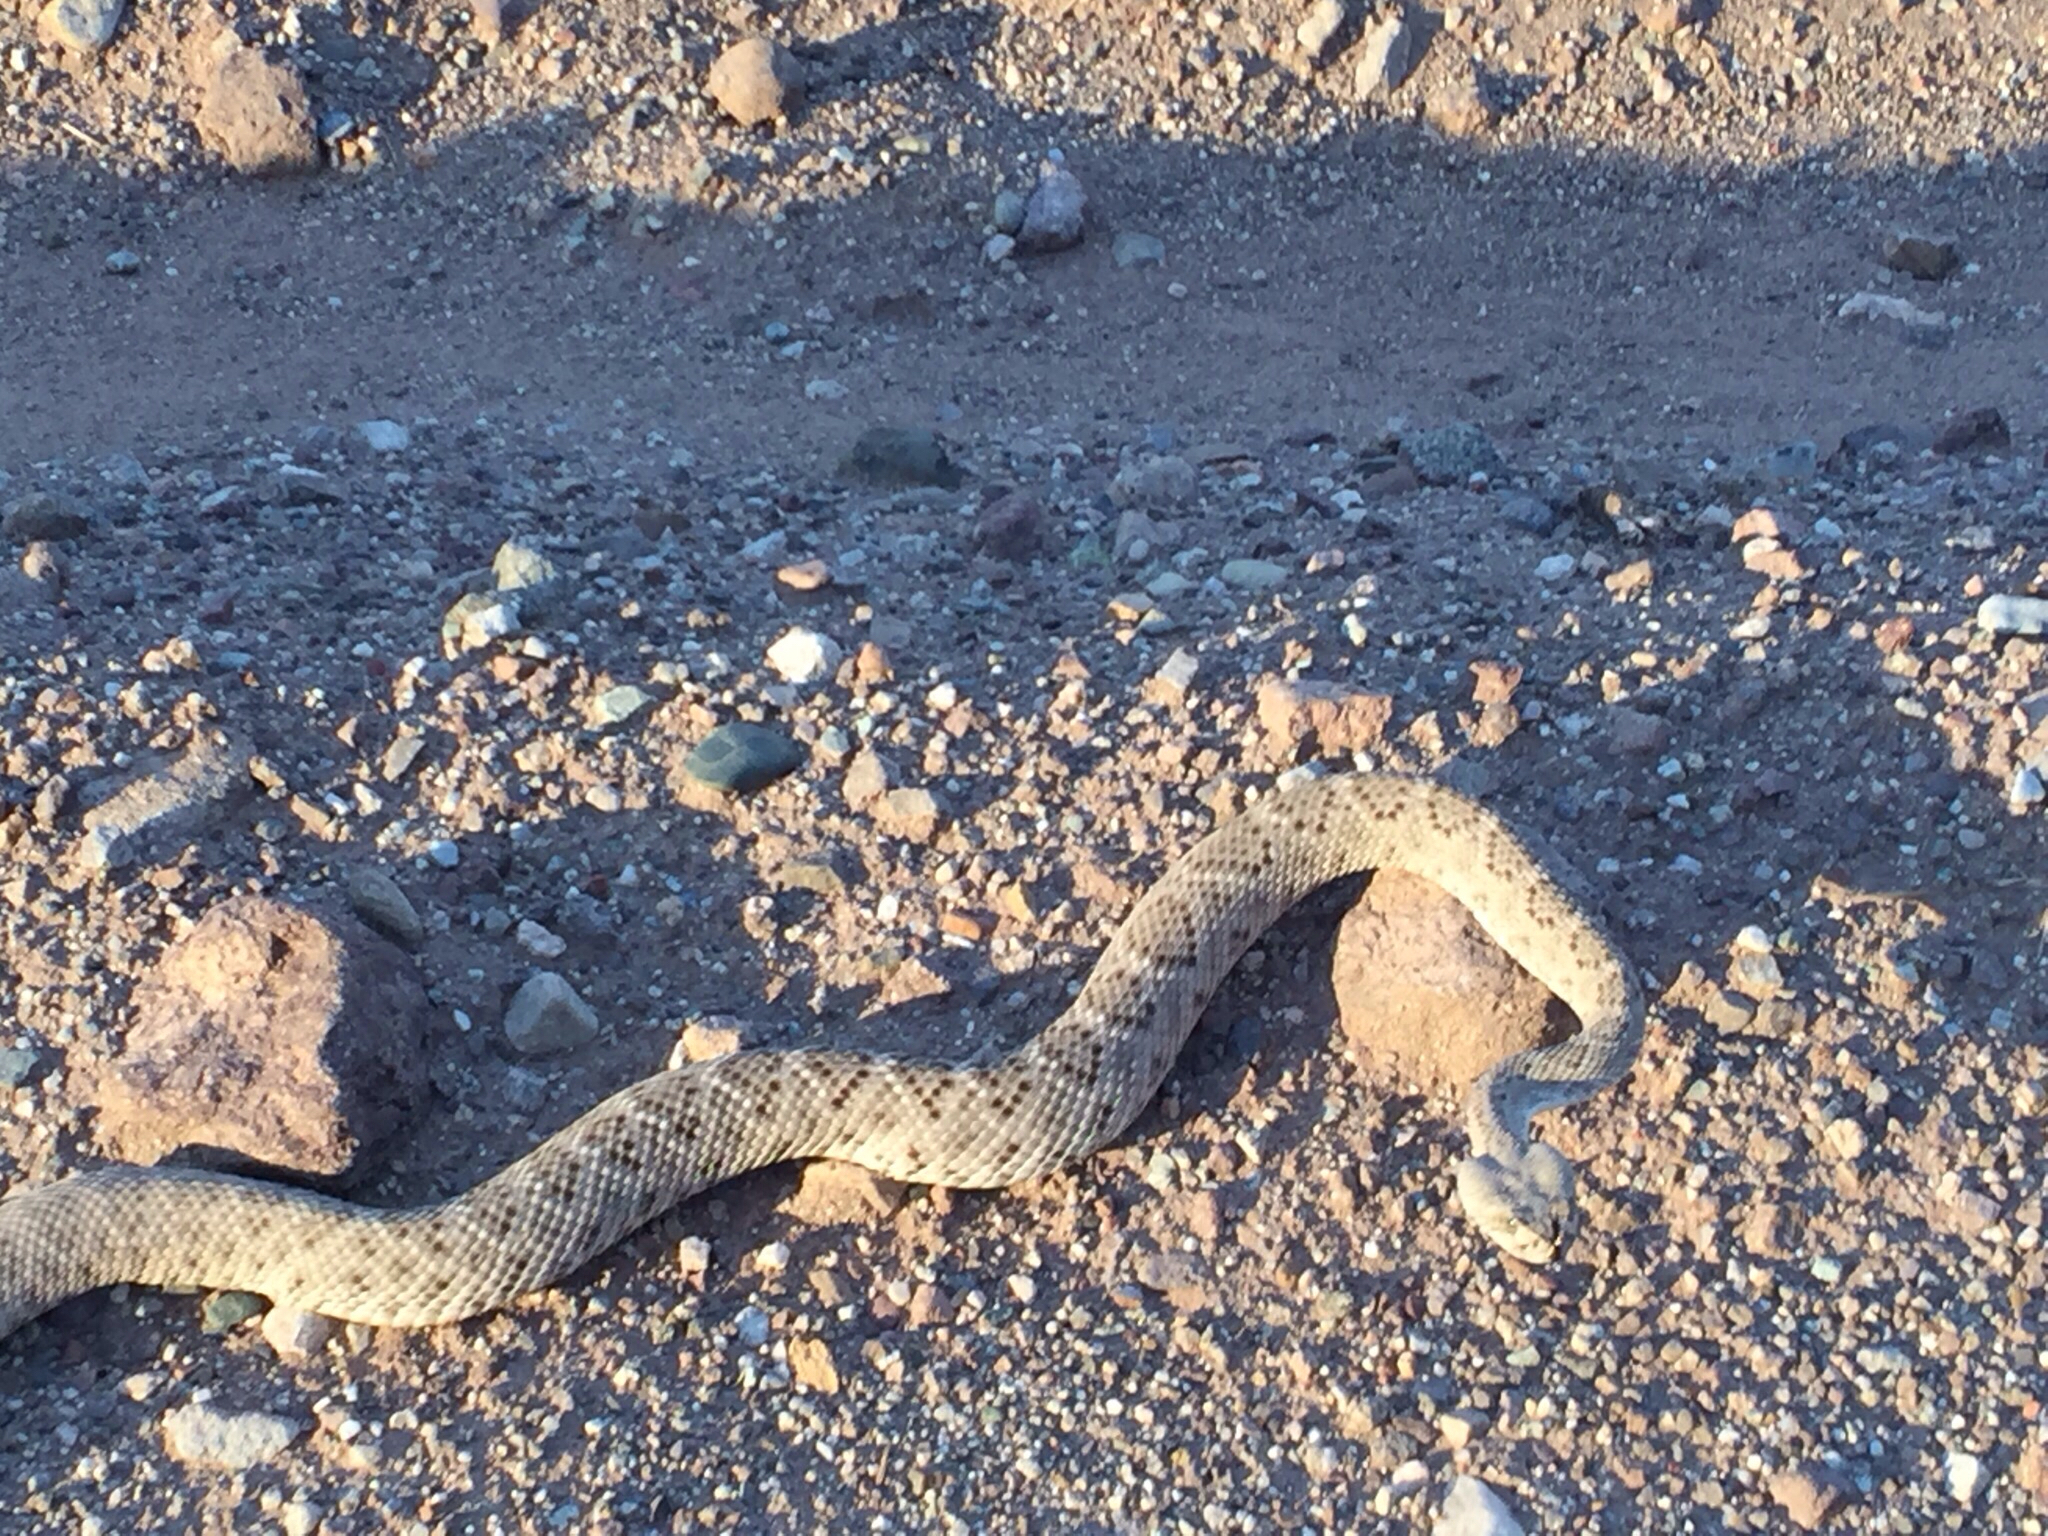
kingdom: Animalia
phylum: Chordata
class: Squamata
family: Viperidae
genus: Crotalus
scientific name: Crotalus atrox
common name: Western diamond-backed rattlesnake
